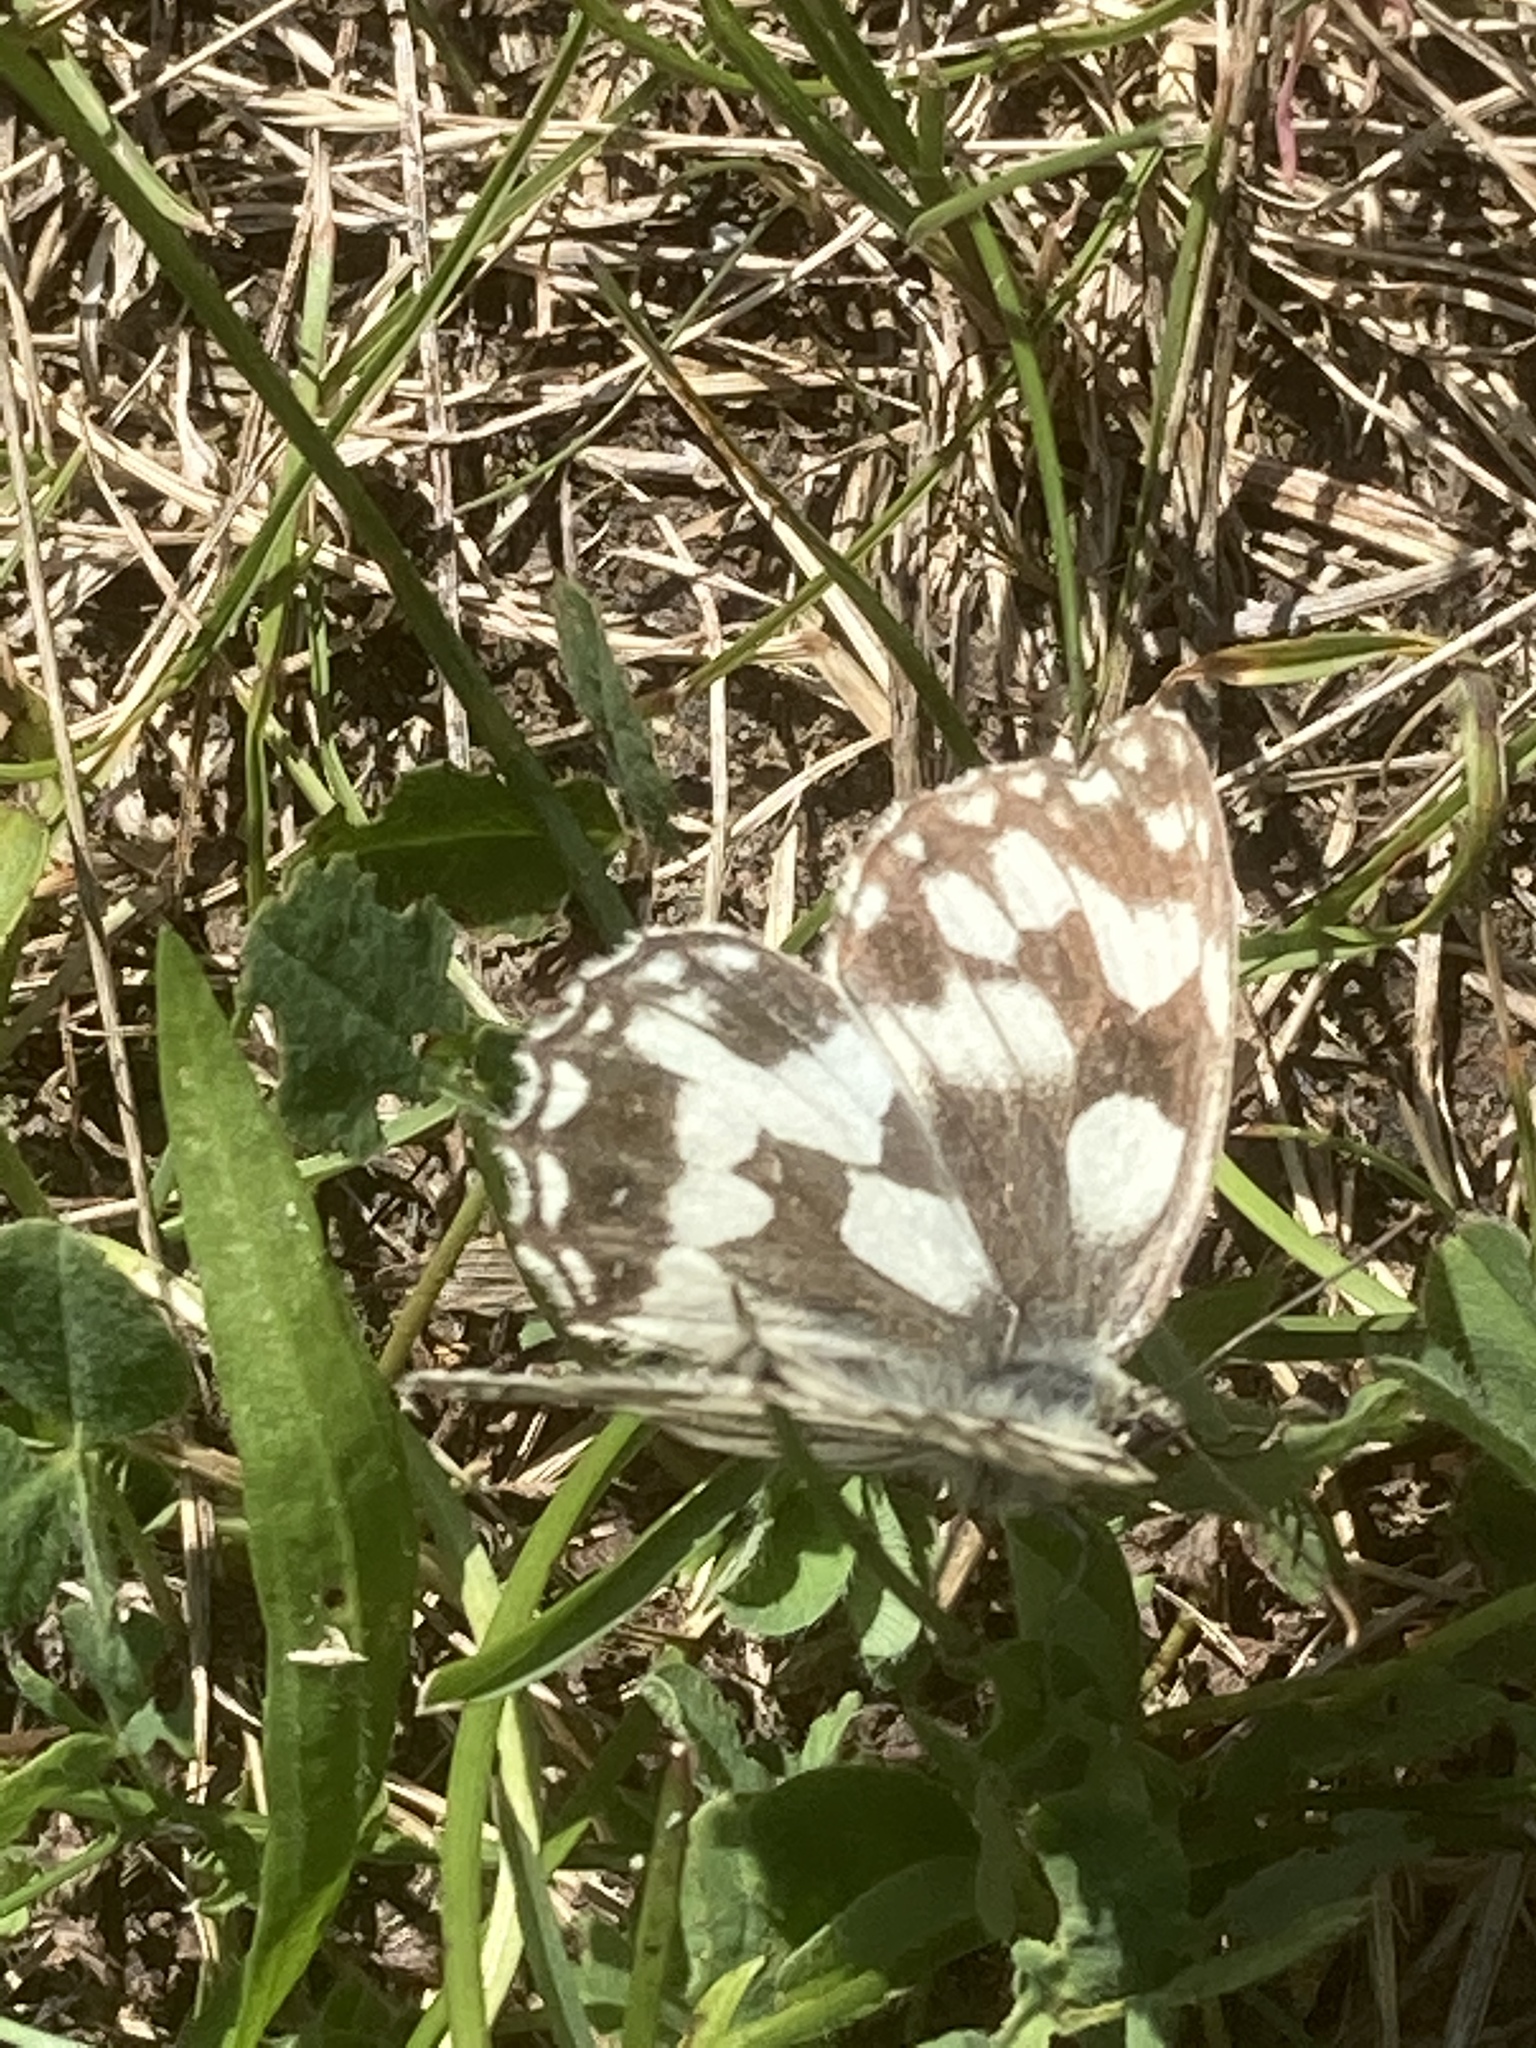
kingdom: Animalia
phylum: Arthropoda
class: Insecta
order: Lepidoptera
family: Nymphalidae
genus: Melanargia
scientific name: Melanargia galathea
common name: Marbled white
